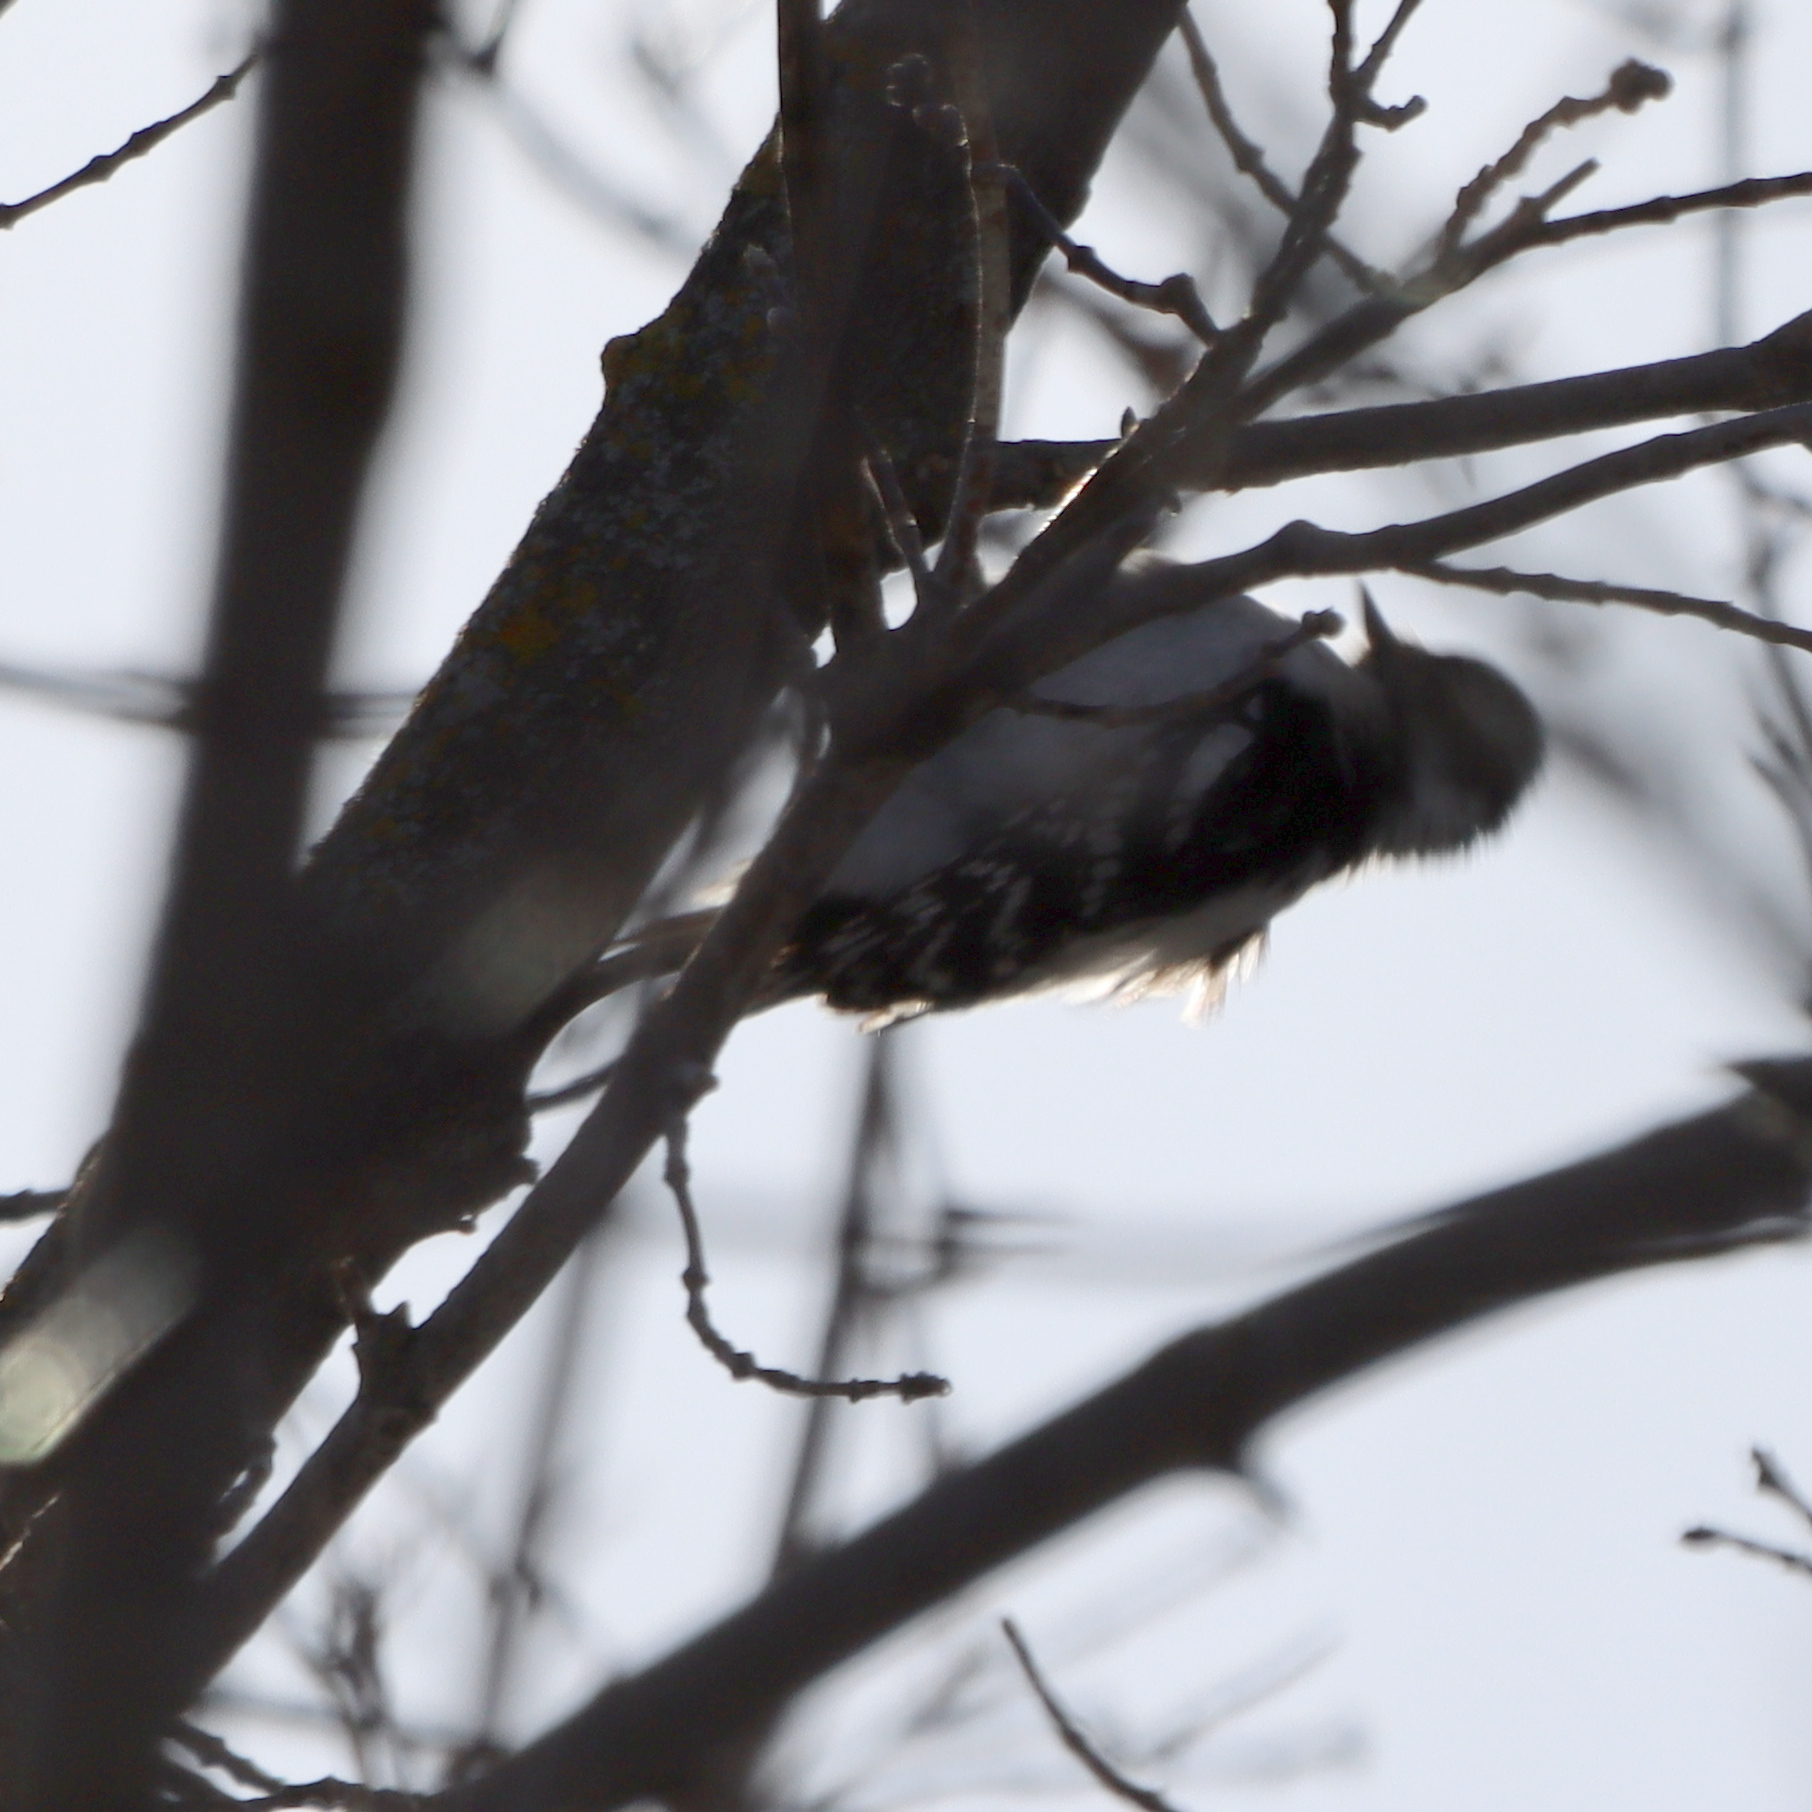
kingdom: Animalia
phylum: Chordata
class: Aves
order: Piciformes
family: Picidae
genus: Dryobates
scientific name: Dryobates pubescens
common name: Downy woodpecker
